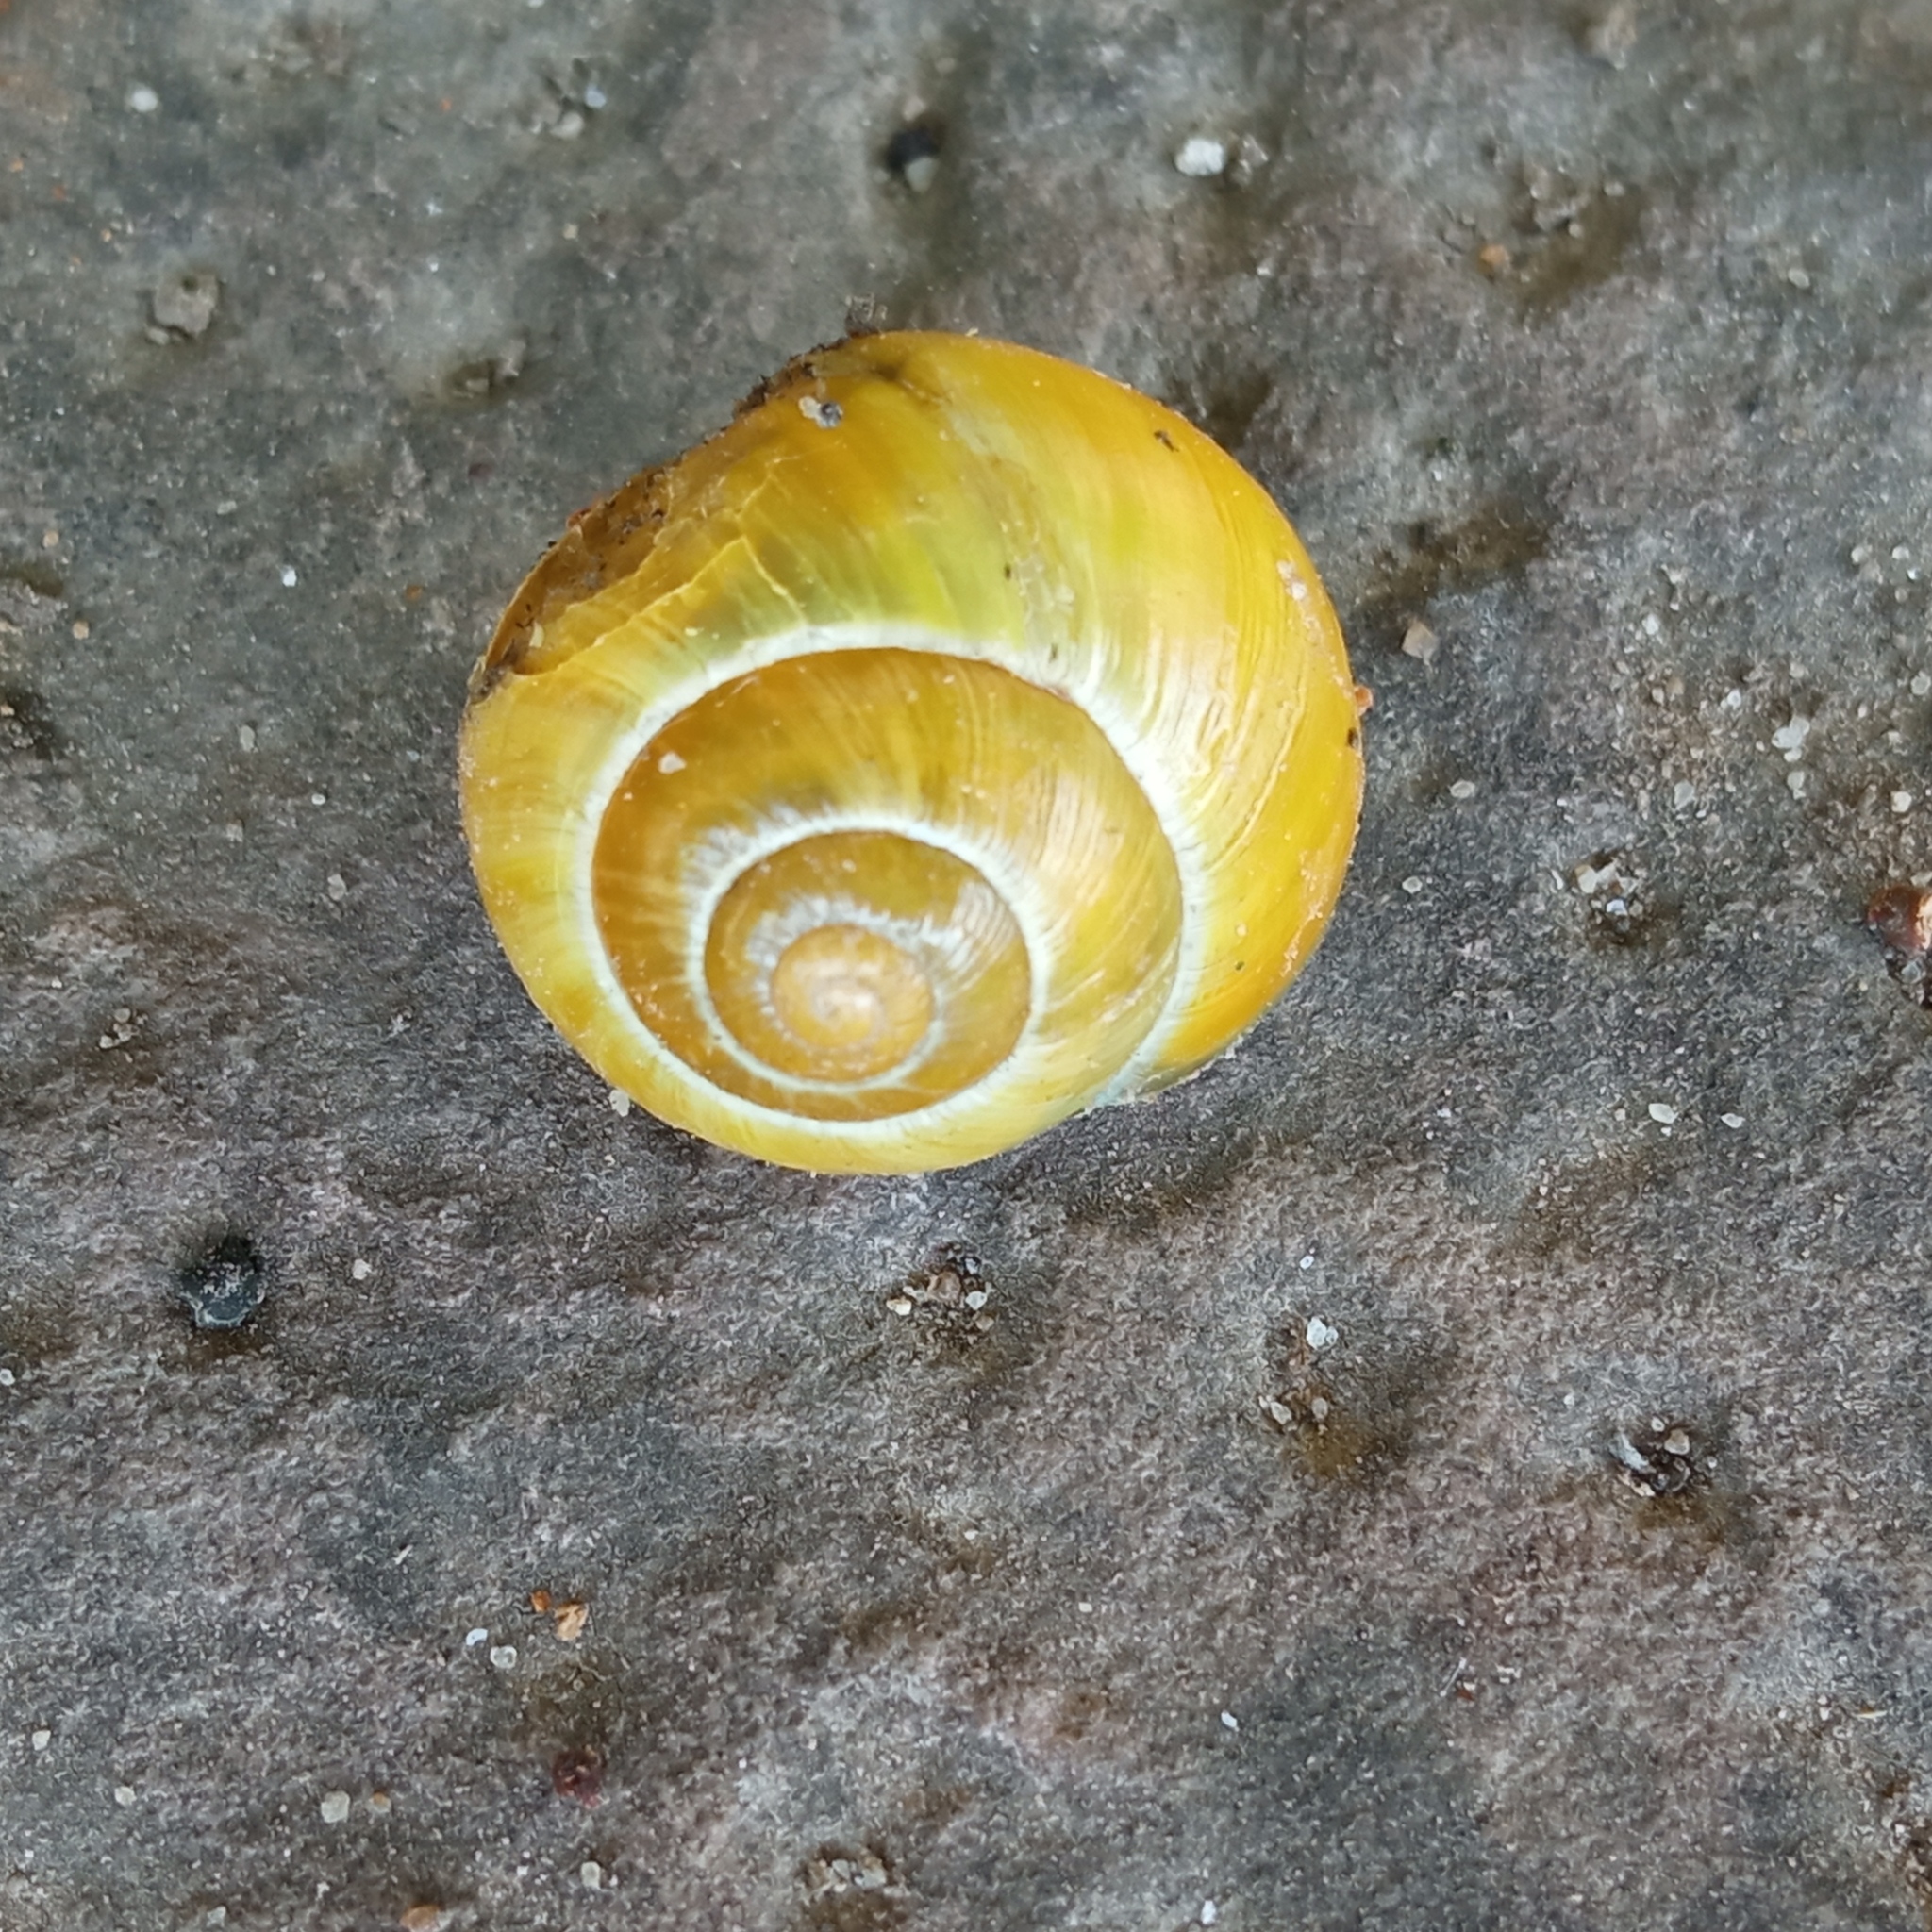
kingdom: Animalia
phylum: Mollusca
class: Gastropoda
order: Stylommatophora
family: Helicidae
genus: Cepaea
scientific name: Cepaea hortensis
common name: White-lip gardensnail
